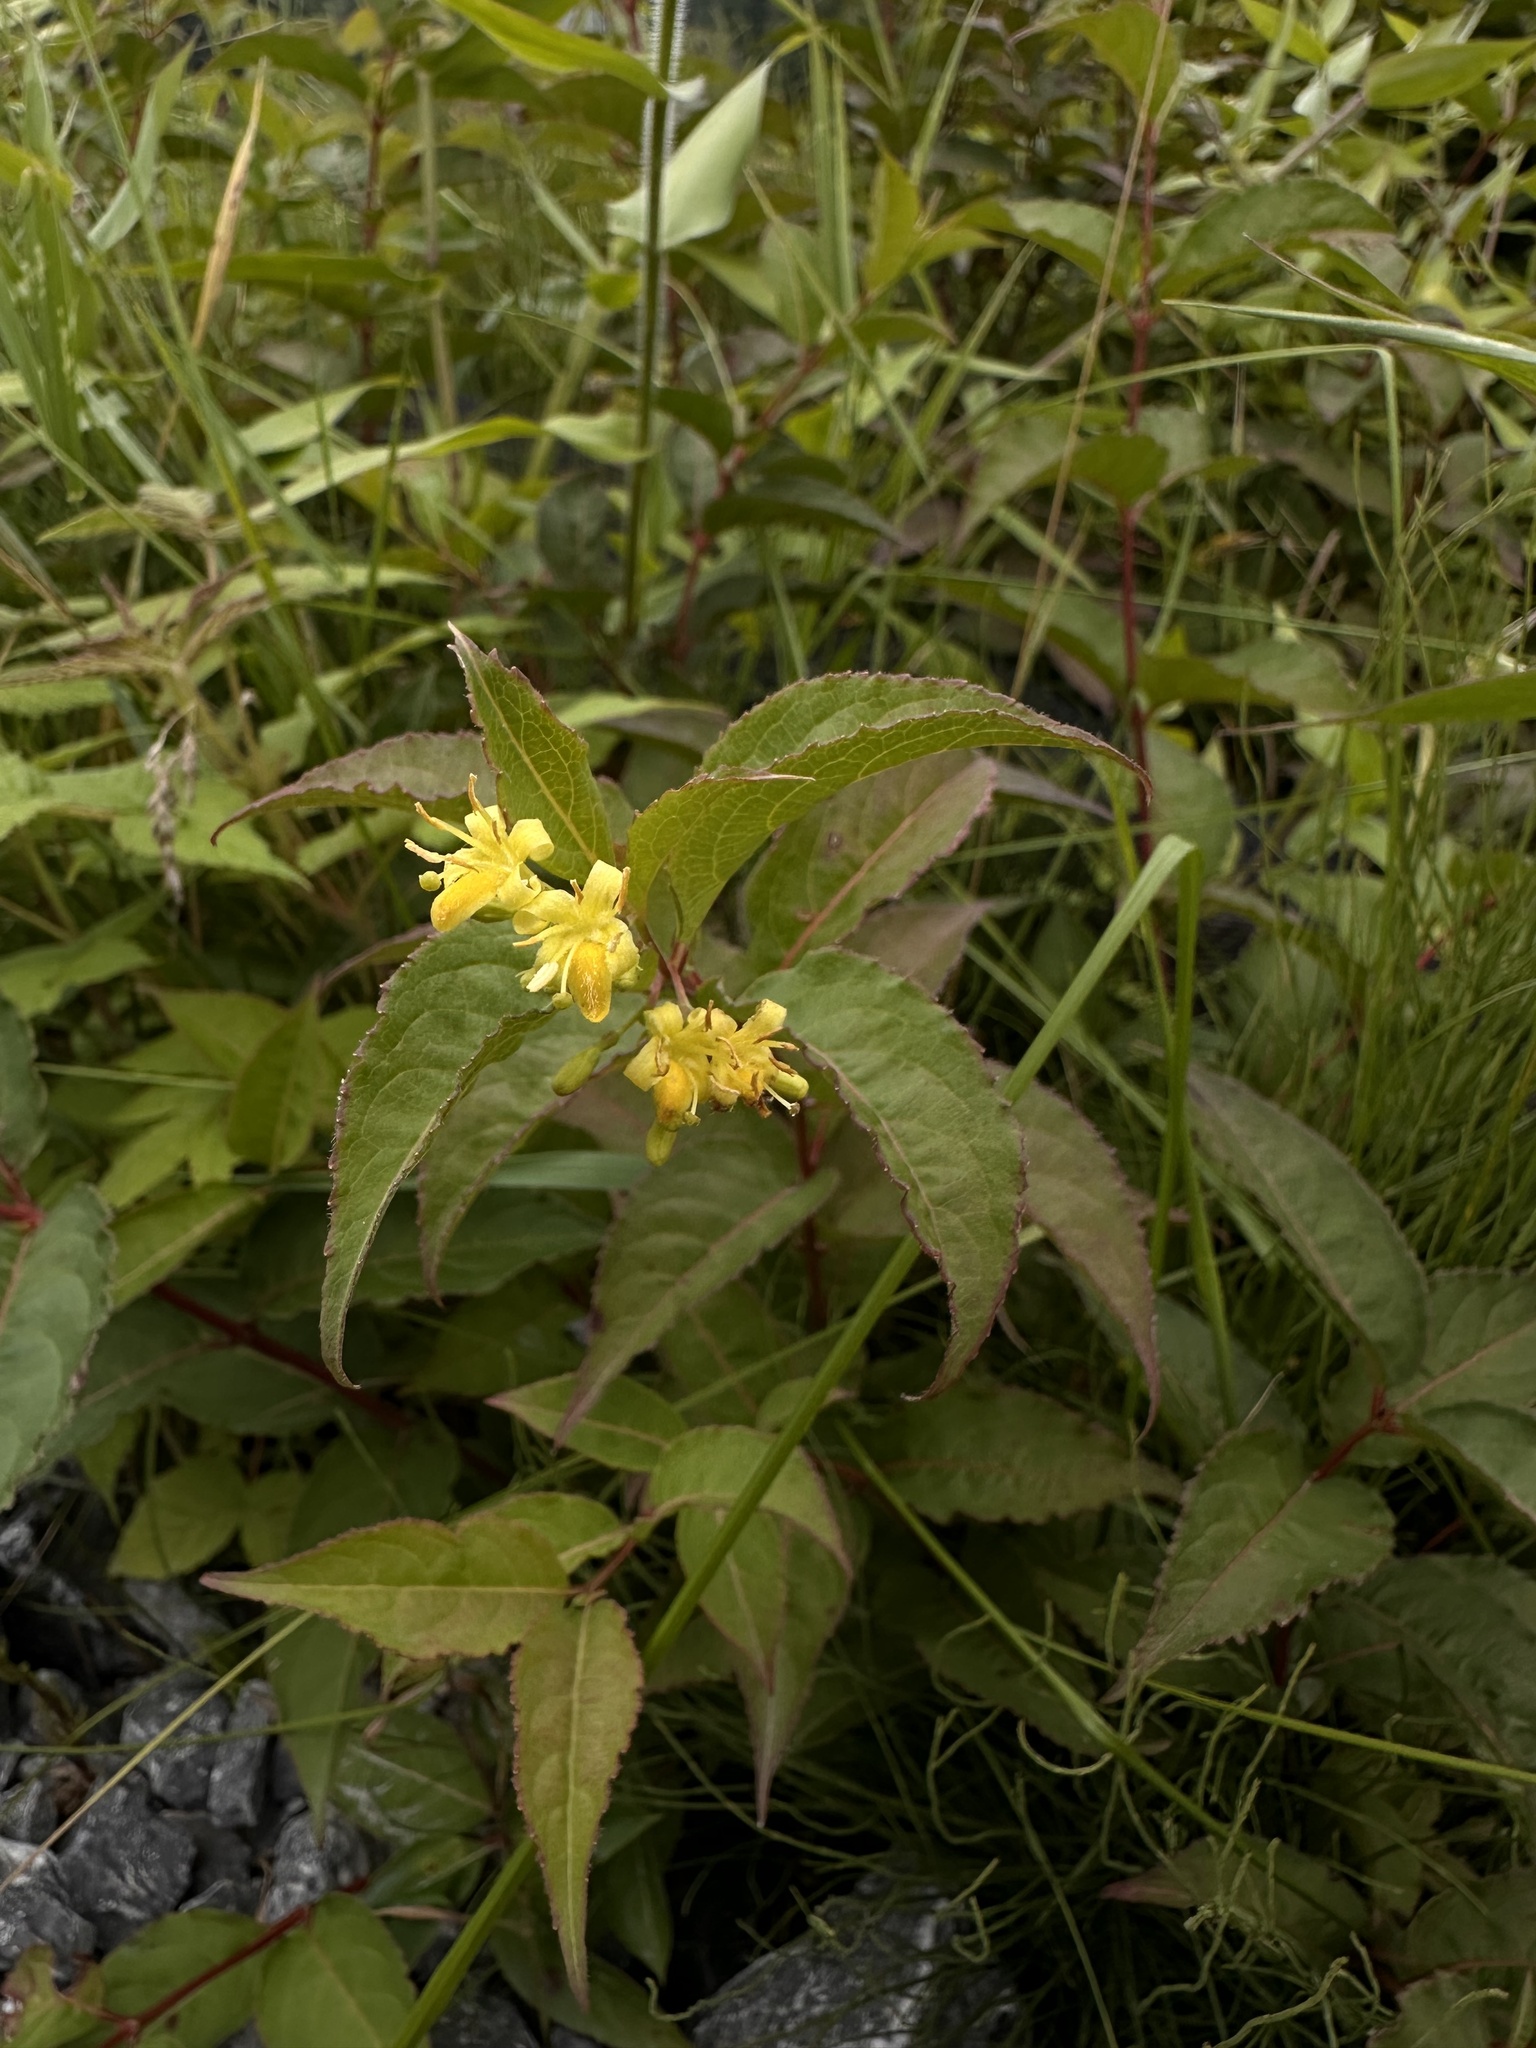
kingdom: Plantae
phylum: Tracheophyta
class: Magnoliopsida
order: Dipsacales
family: Caprifoliaceae
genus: Diervilla
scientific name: Diervilla lonicera
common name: Bush-honeysuckle
